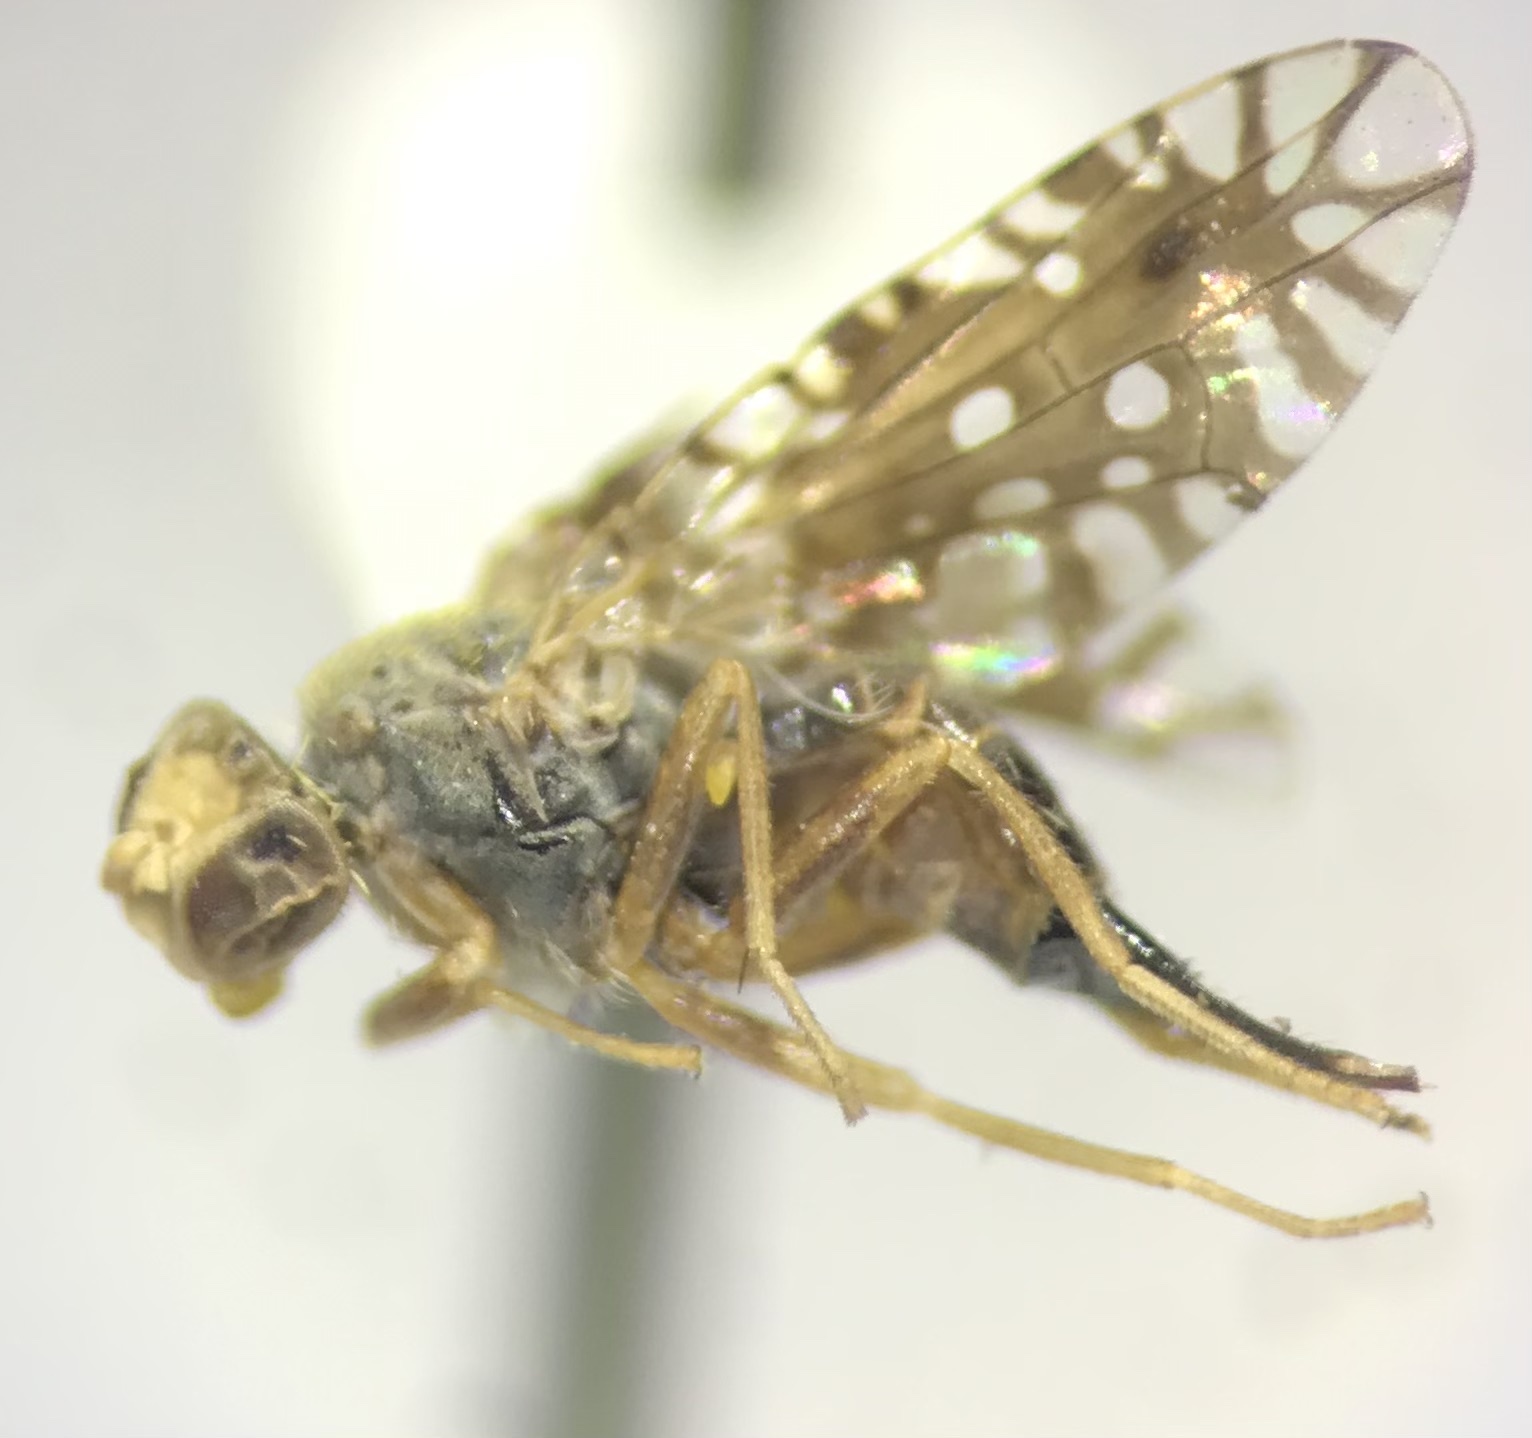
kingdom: Animalia
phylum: Arthropoda
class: Insecta
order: Diptera
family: Tephritidae
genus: Euaresta
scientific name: Euaresta stigmatica
